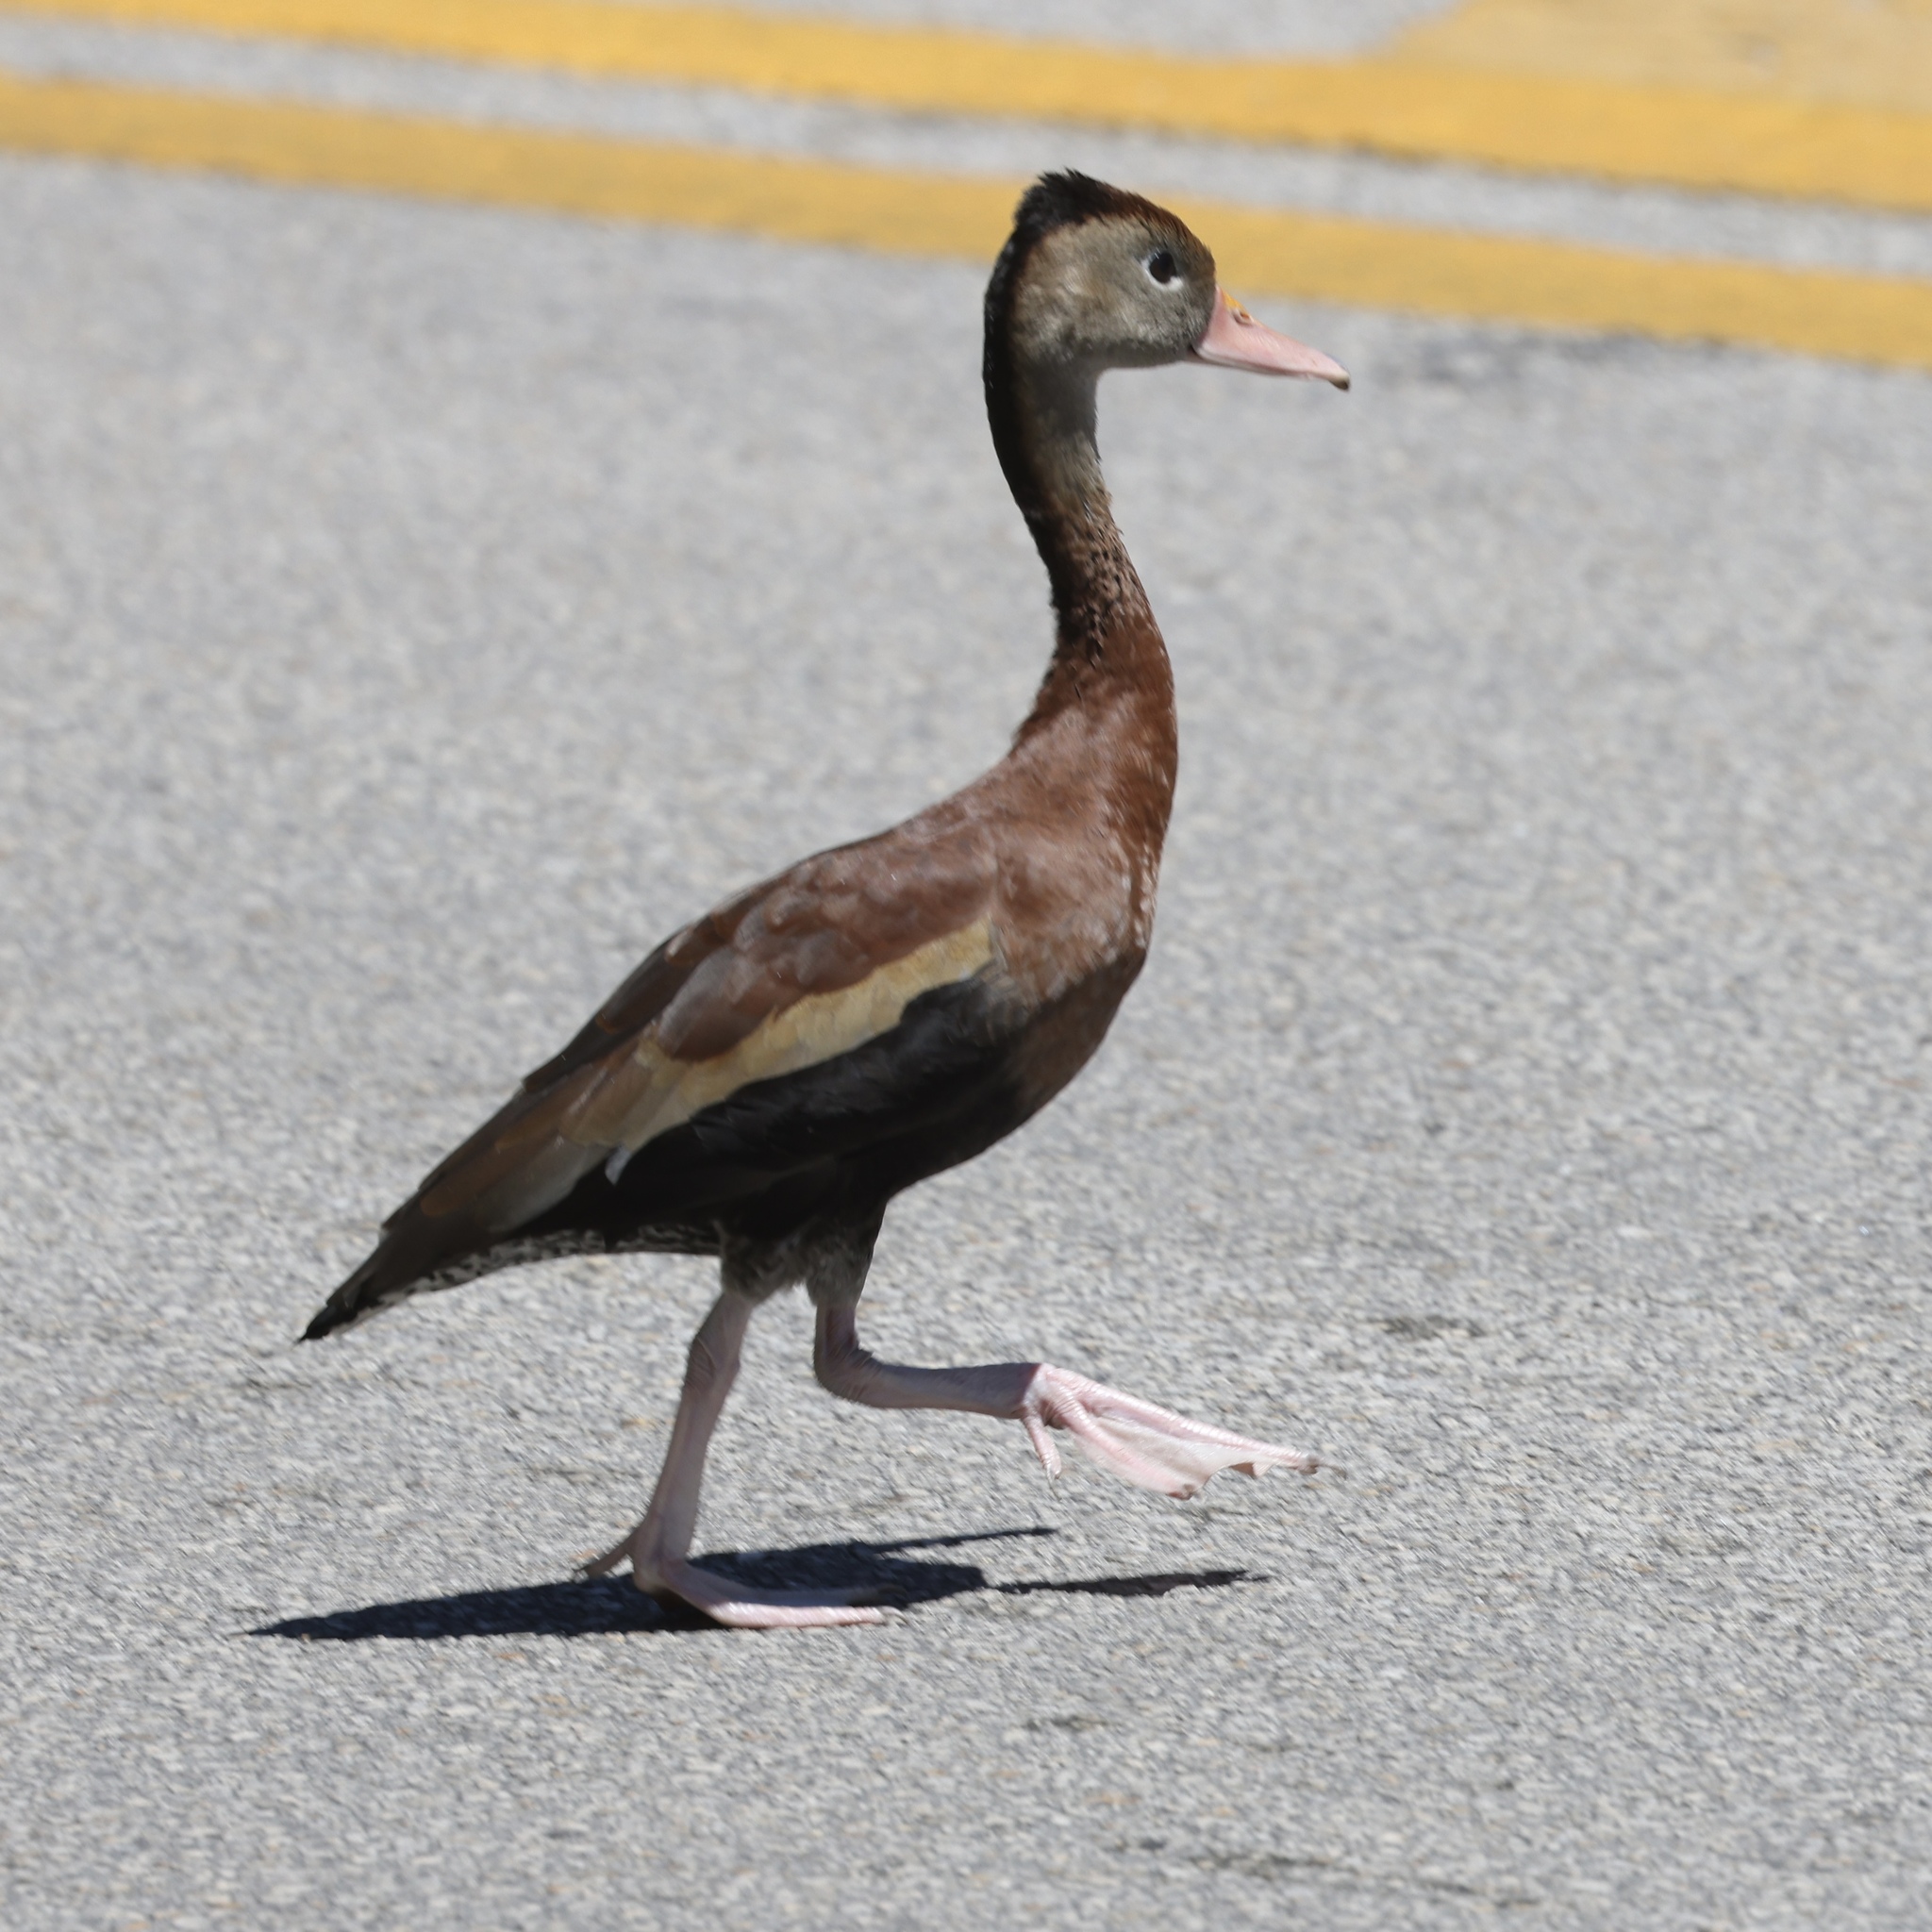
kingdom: Animalia
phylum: Chordata
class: Aves
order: Anseriformes
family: Anatidae
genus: Dendrocygna
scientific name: Dendrocygna autumnalis
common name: Black-bellied whistling duck
